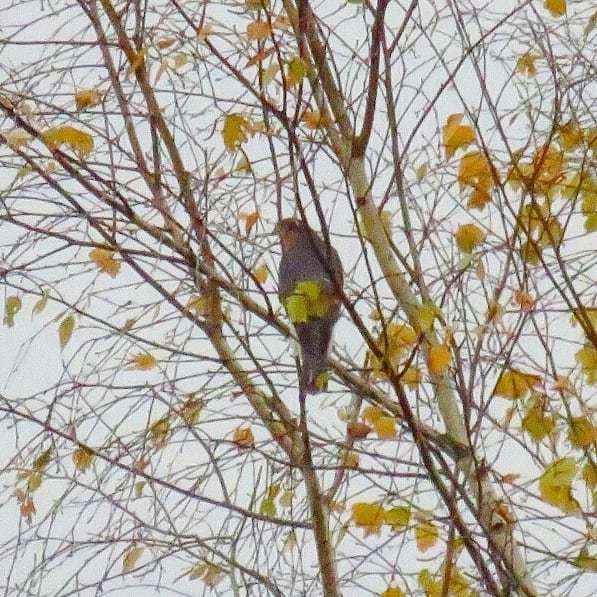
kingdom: Animalia
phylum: Chordata
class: Aves
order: Accipitriformes
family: Accipitridae
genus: Accipiter
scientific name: Accipiter nisus
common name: Eurasian sparrowhawk
